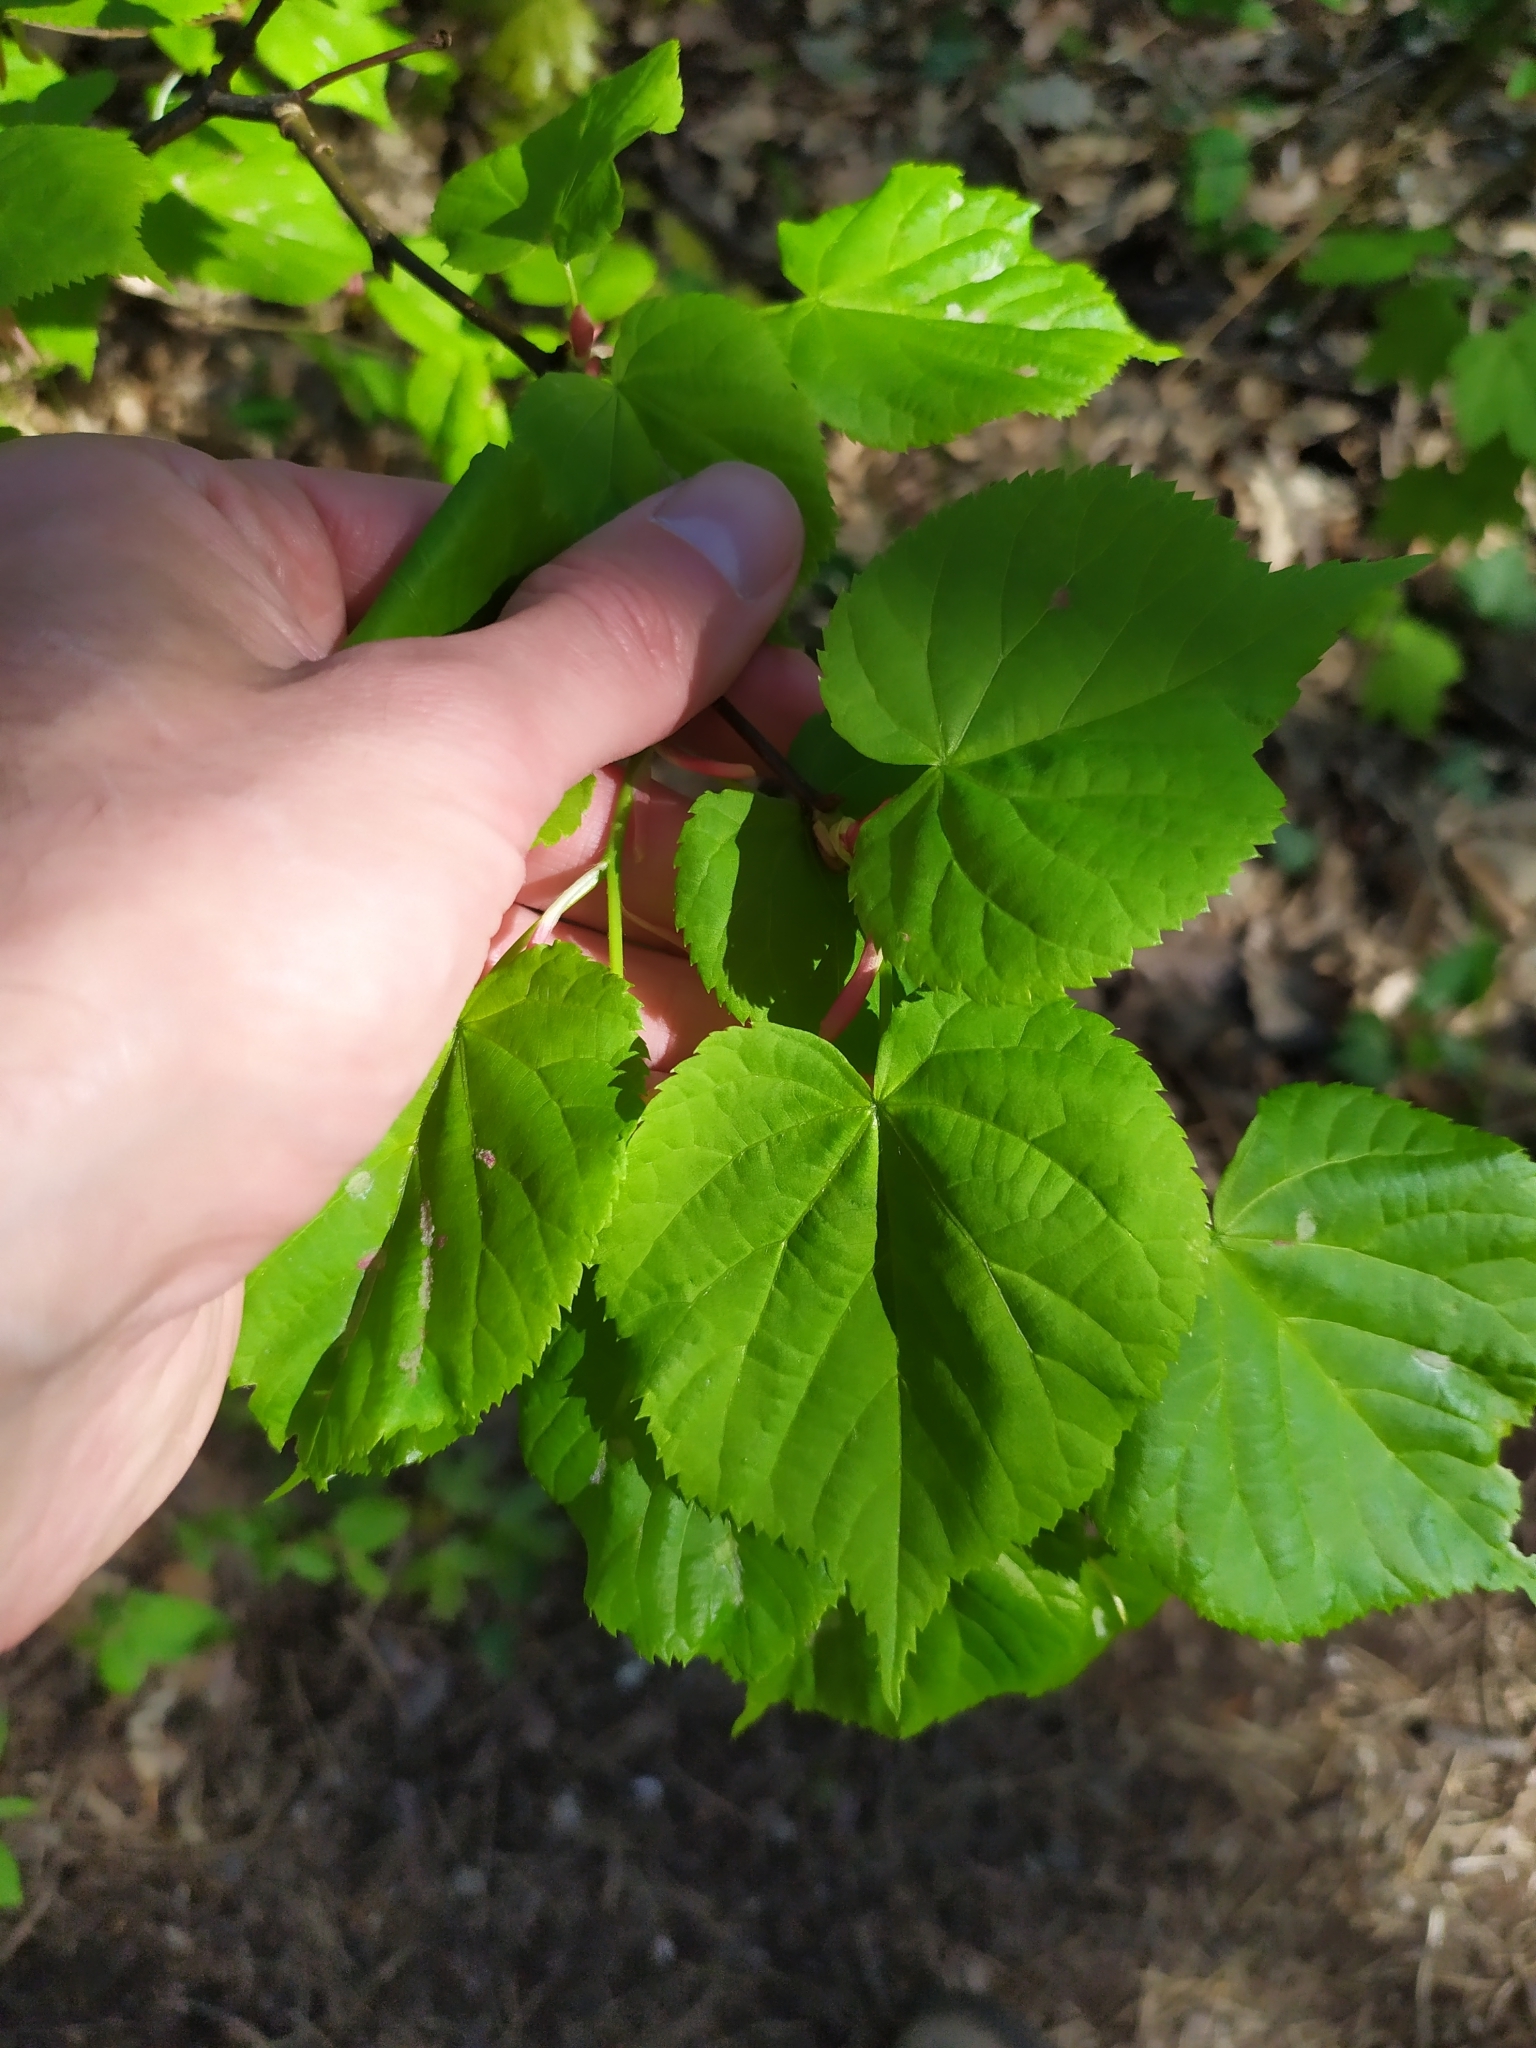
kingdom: Plantae
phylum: Tracheophyta
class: Magnoliopsida
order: Malvales
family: Malvaceae
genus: Tilia
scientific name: Tilia cordata
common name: Small-leaved lime
